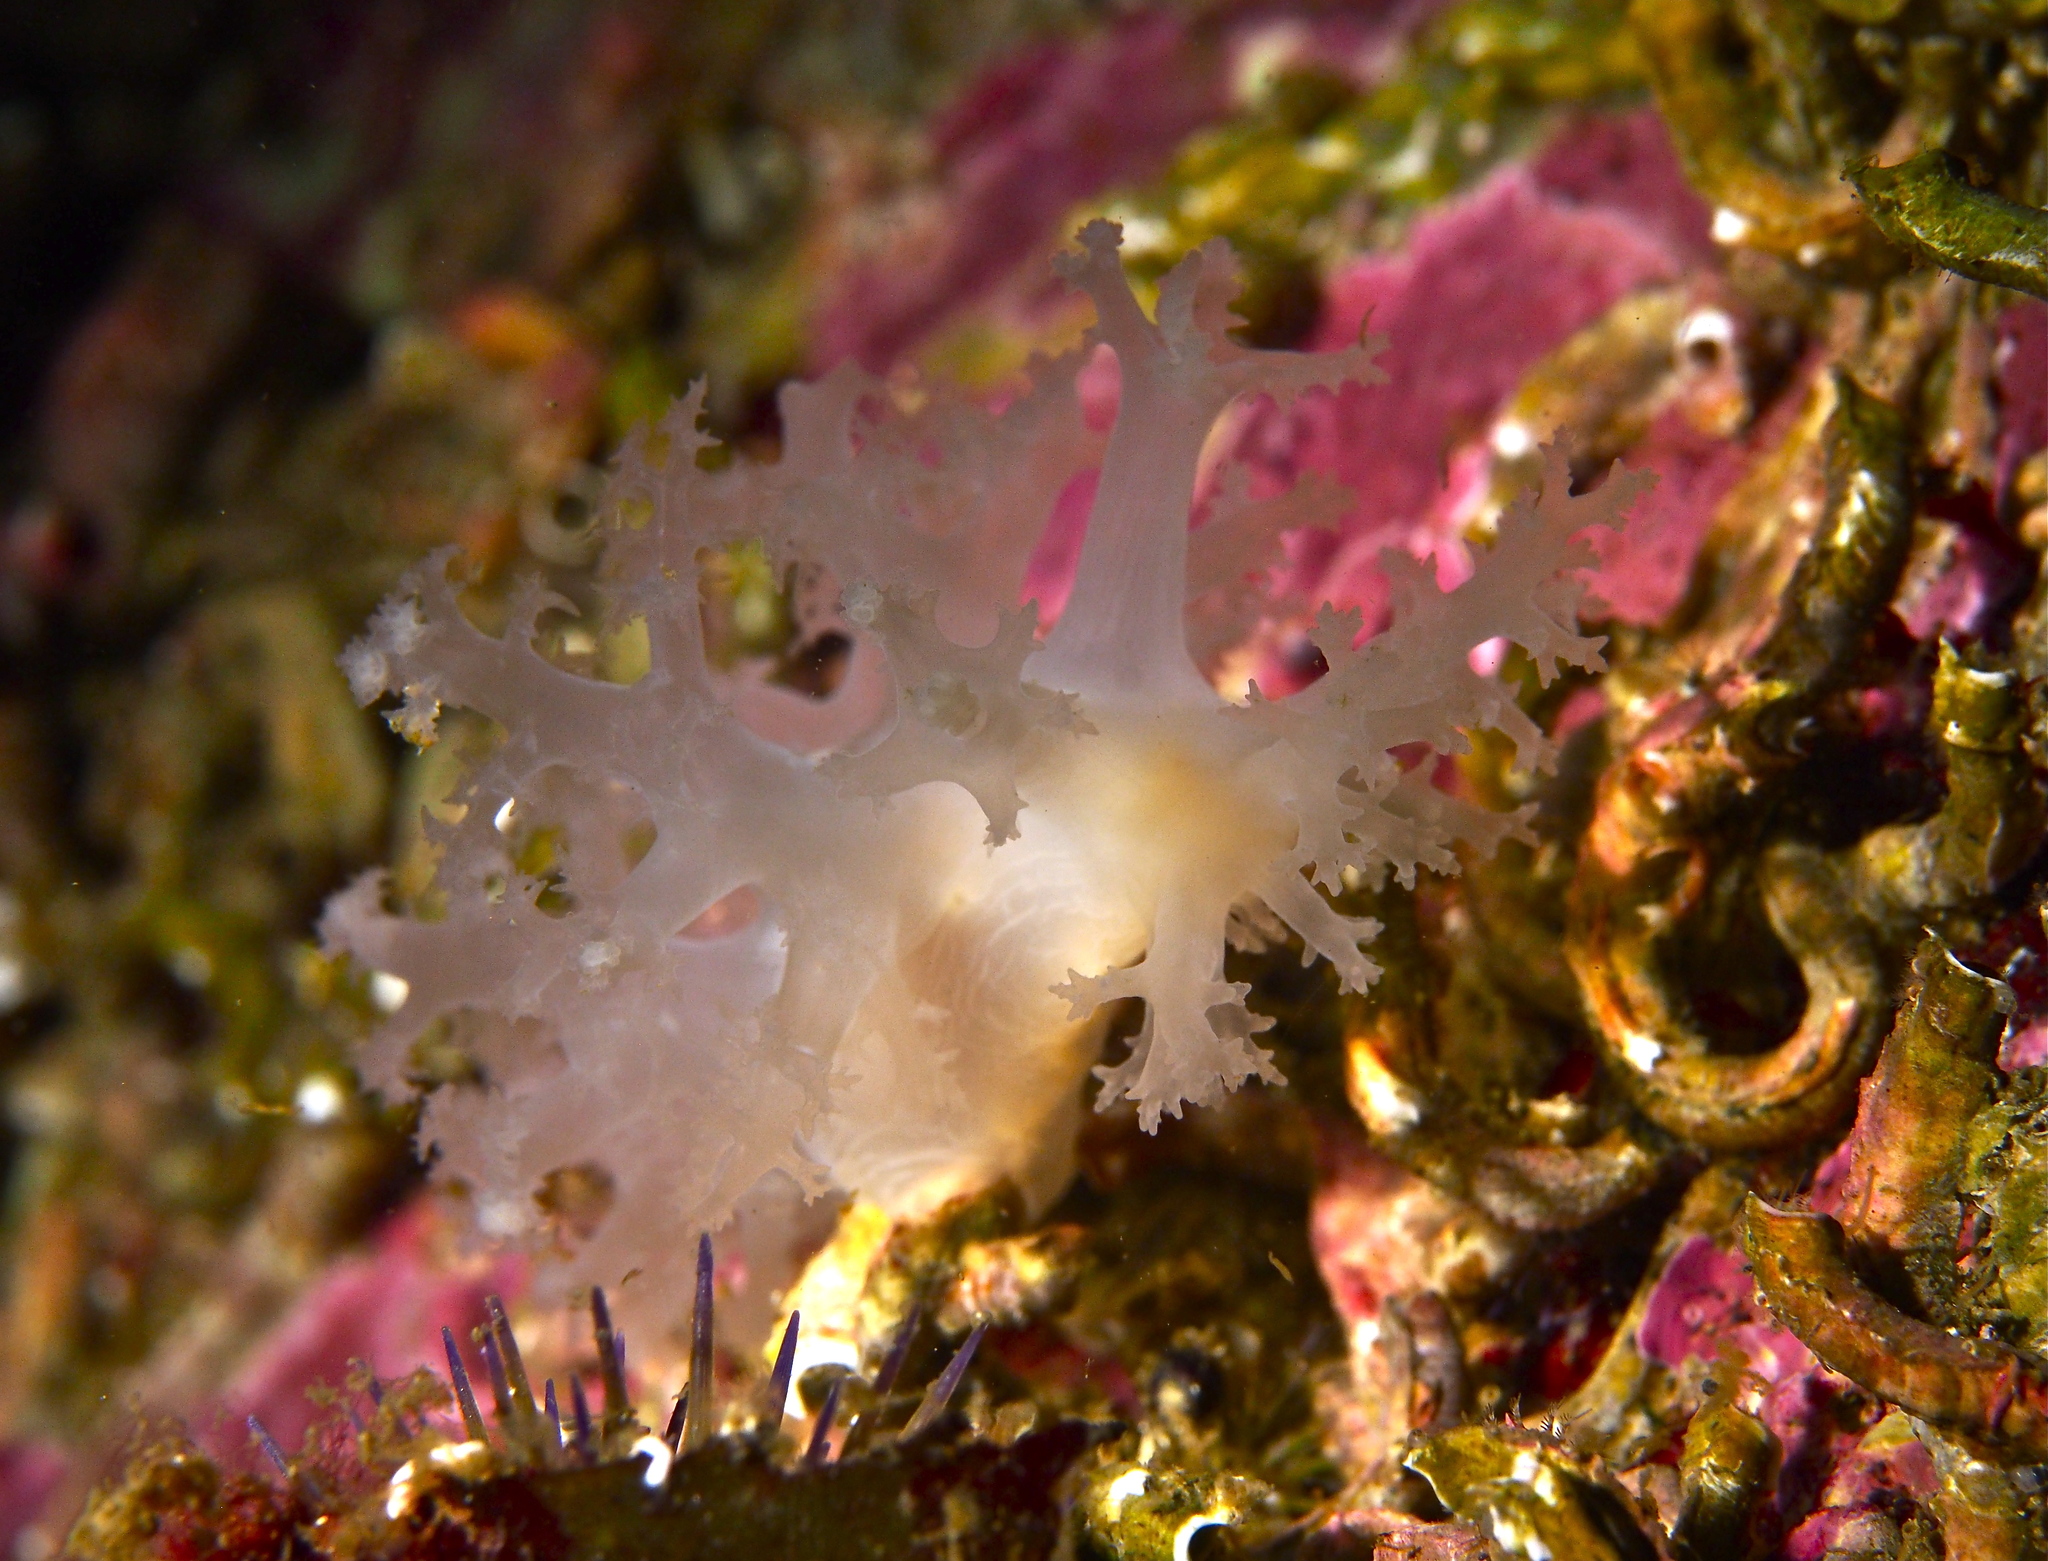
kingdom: Animalia
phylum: Mollusca
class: Gastropoda
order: Nudibranchia
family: Dendronotidae
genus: Dendronotus
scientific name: Dendronotus lacteus
